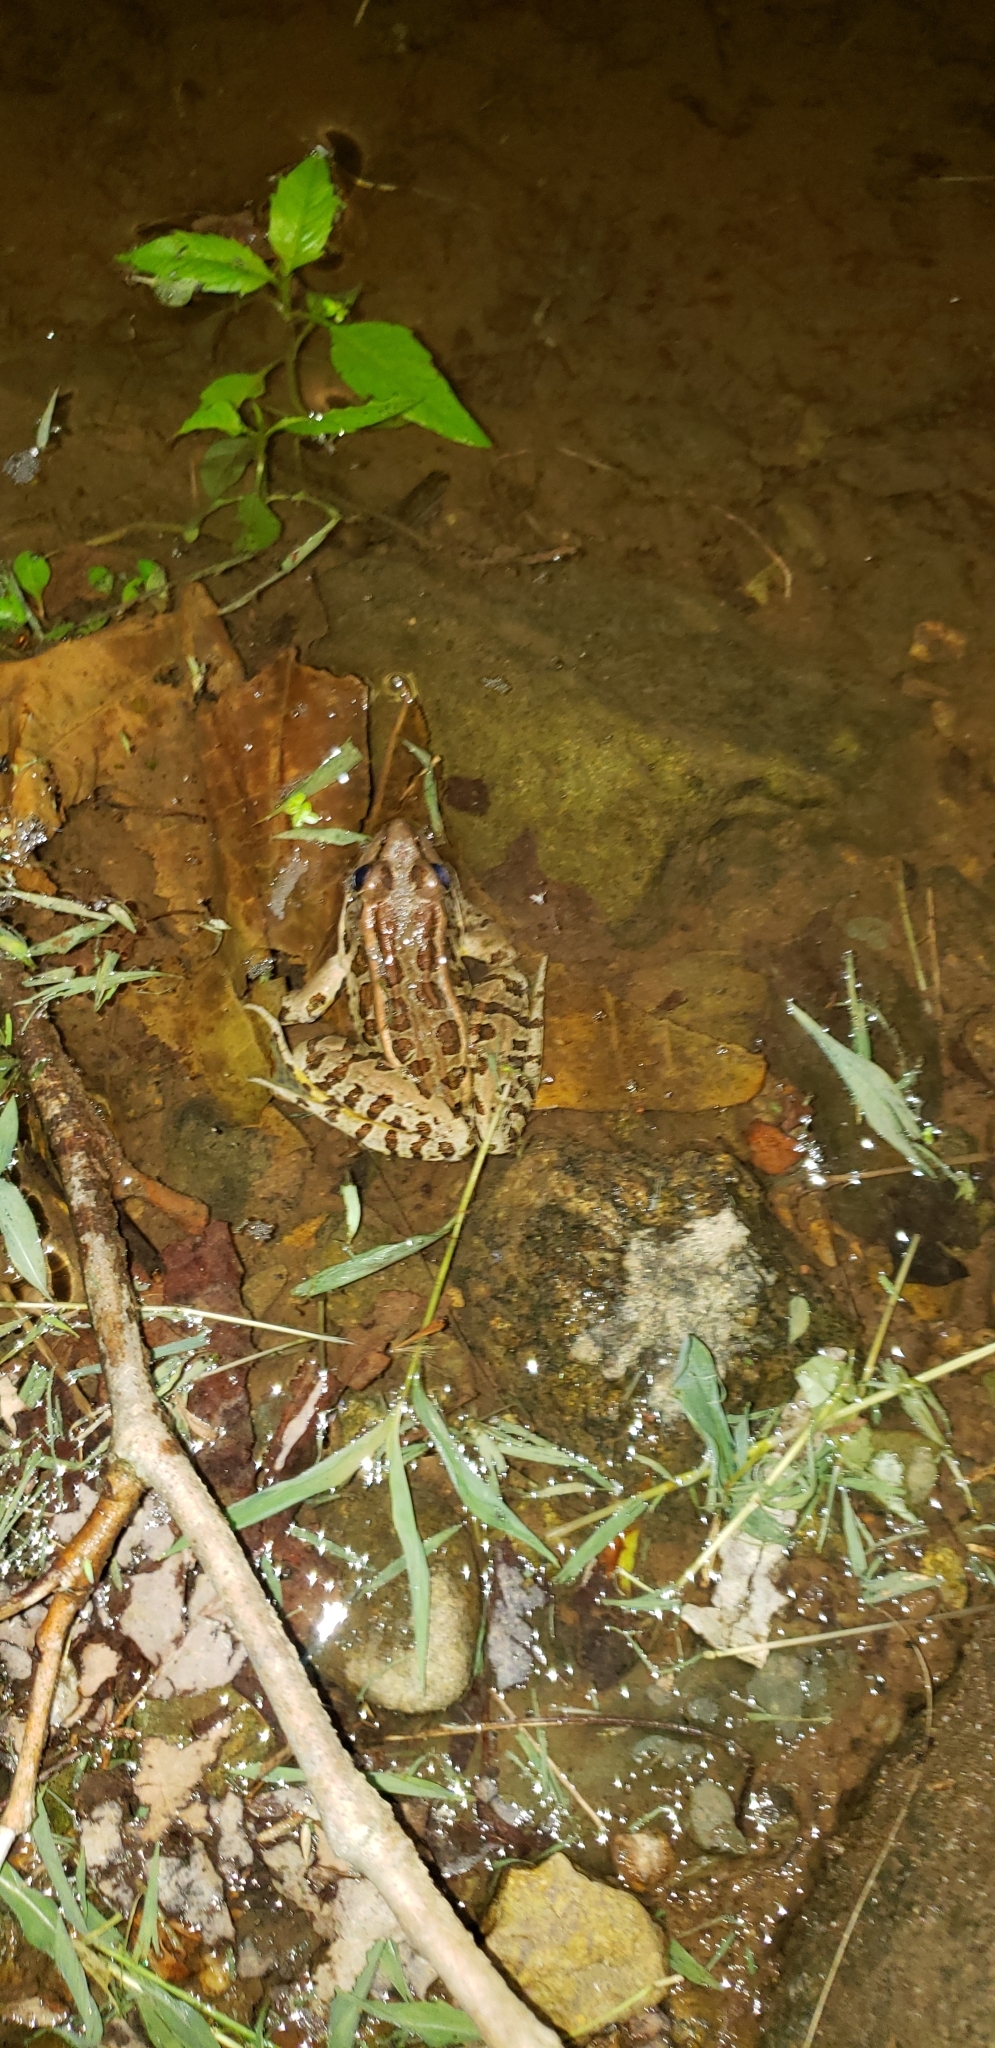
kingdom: Animalia
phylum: Chordata
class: Amphibia
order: Anura
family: Ranidae
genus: Lithobates
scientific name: Lithobates palustris
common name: Pickerel frog
